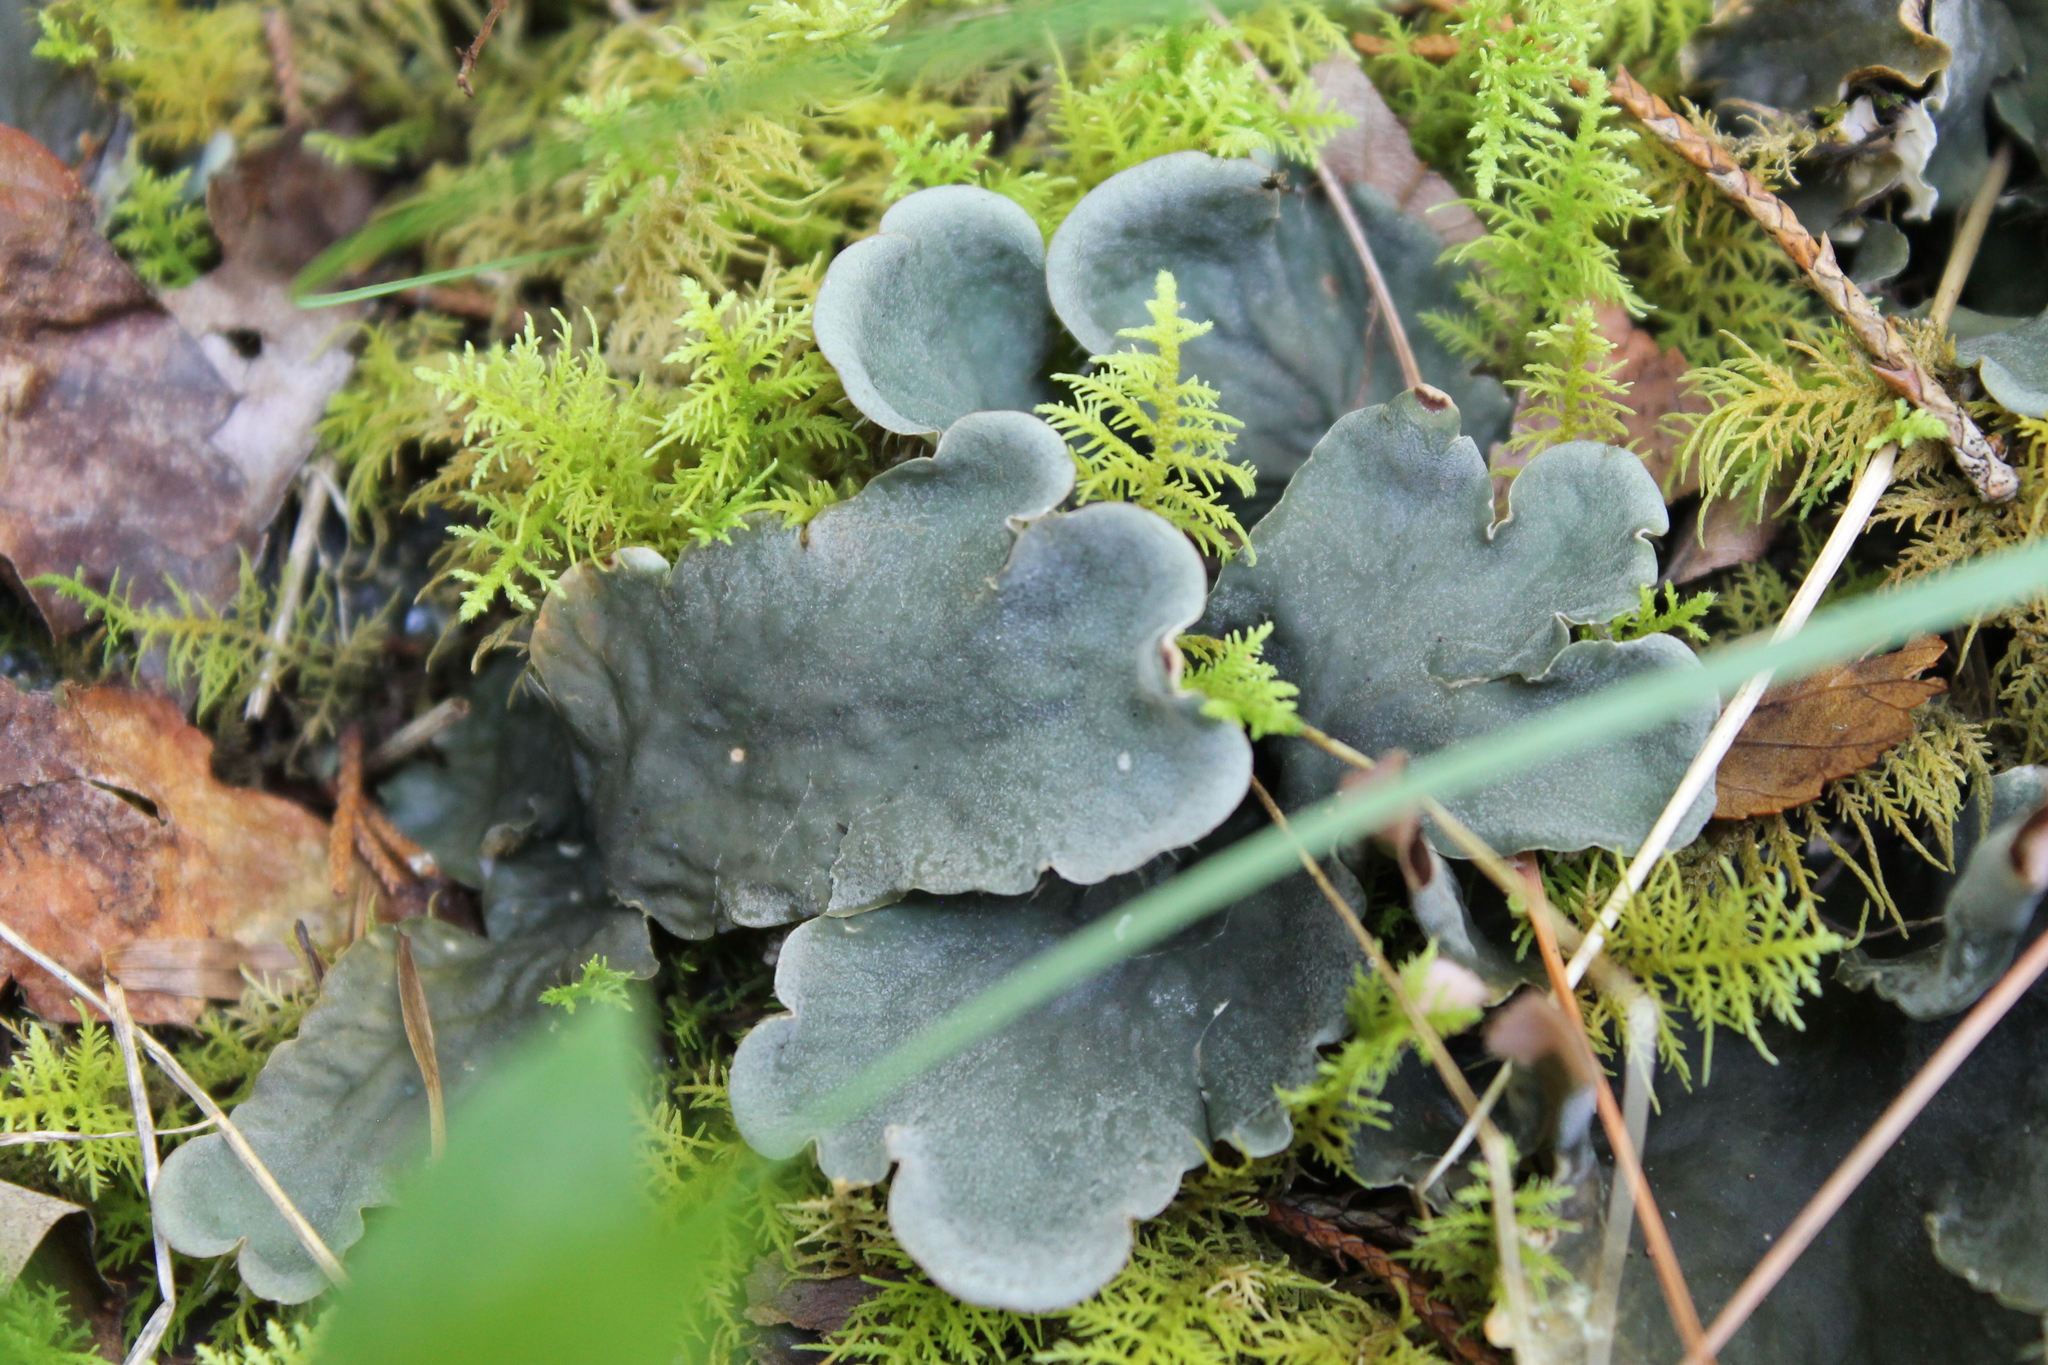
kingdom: Fungi
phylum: Ascomycota
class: Lecanoromycetes
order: Peltigerales
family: Peltigeraceae
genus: Peltigera
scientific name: Peltigera canina
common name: Dog pelt lichen
